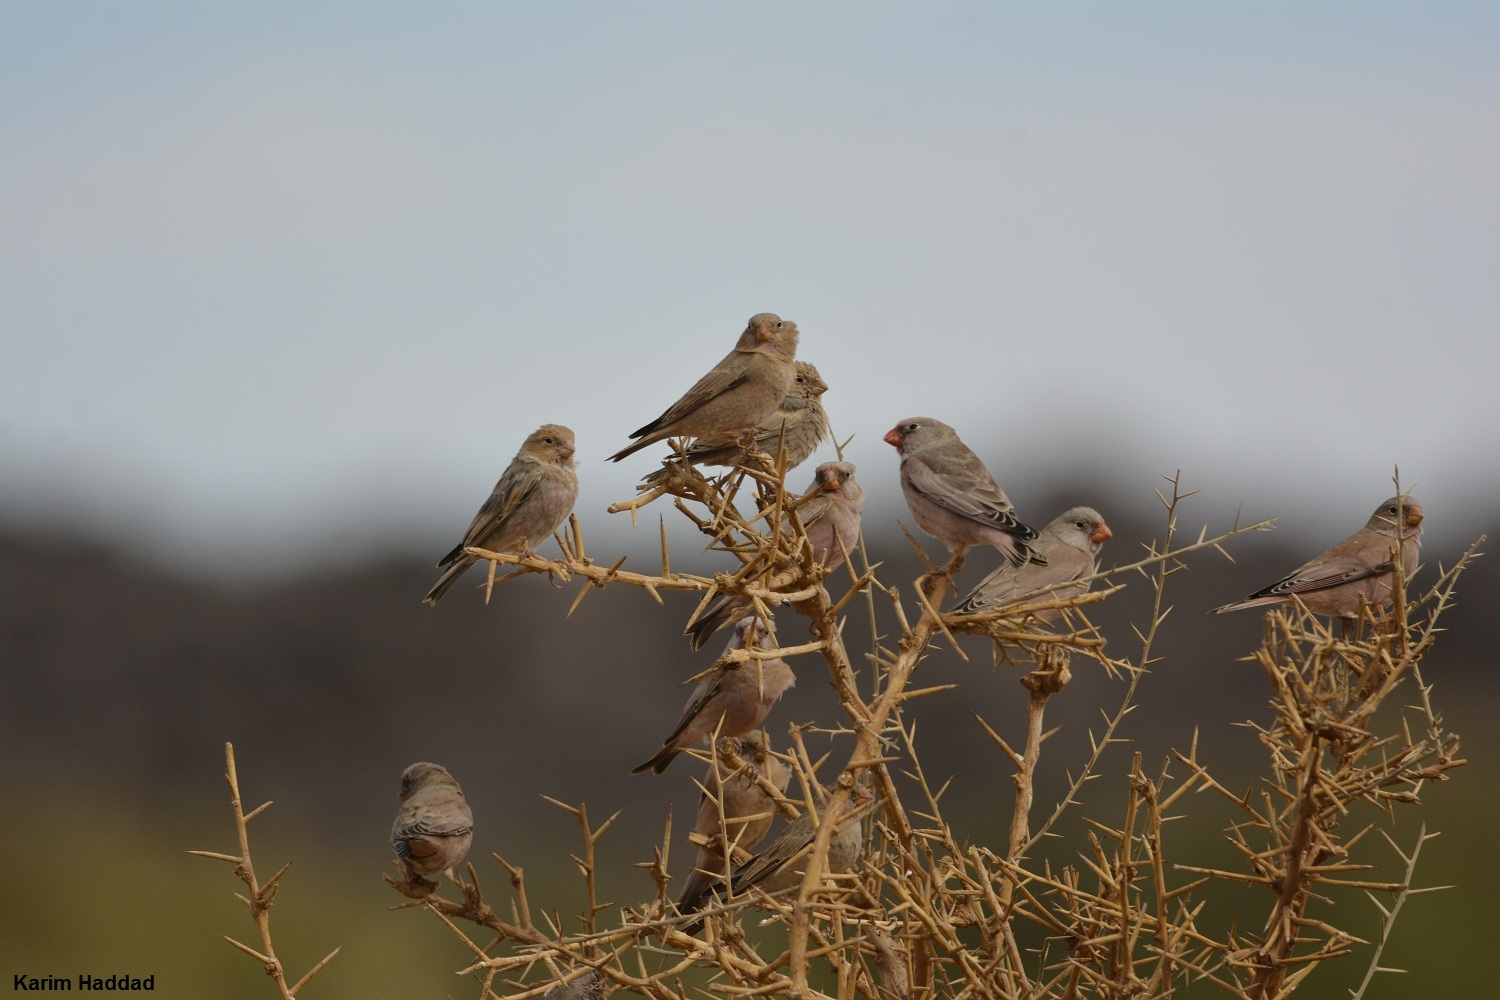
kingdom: Animalia
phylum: Chordata
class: Aves
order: Passeriformes
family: Fringillidae
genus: Bucanetes
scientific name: Bucanetes githagineus
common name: Trumpeter finch
